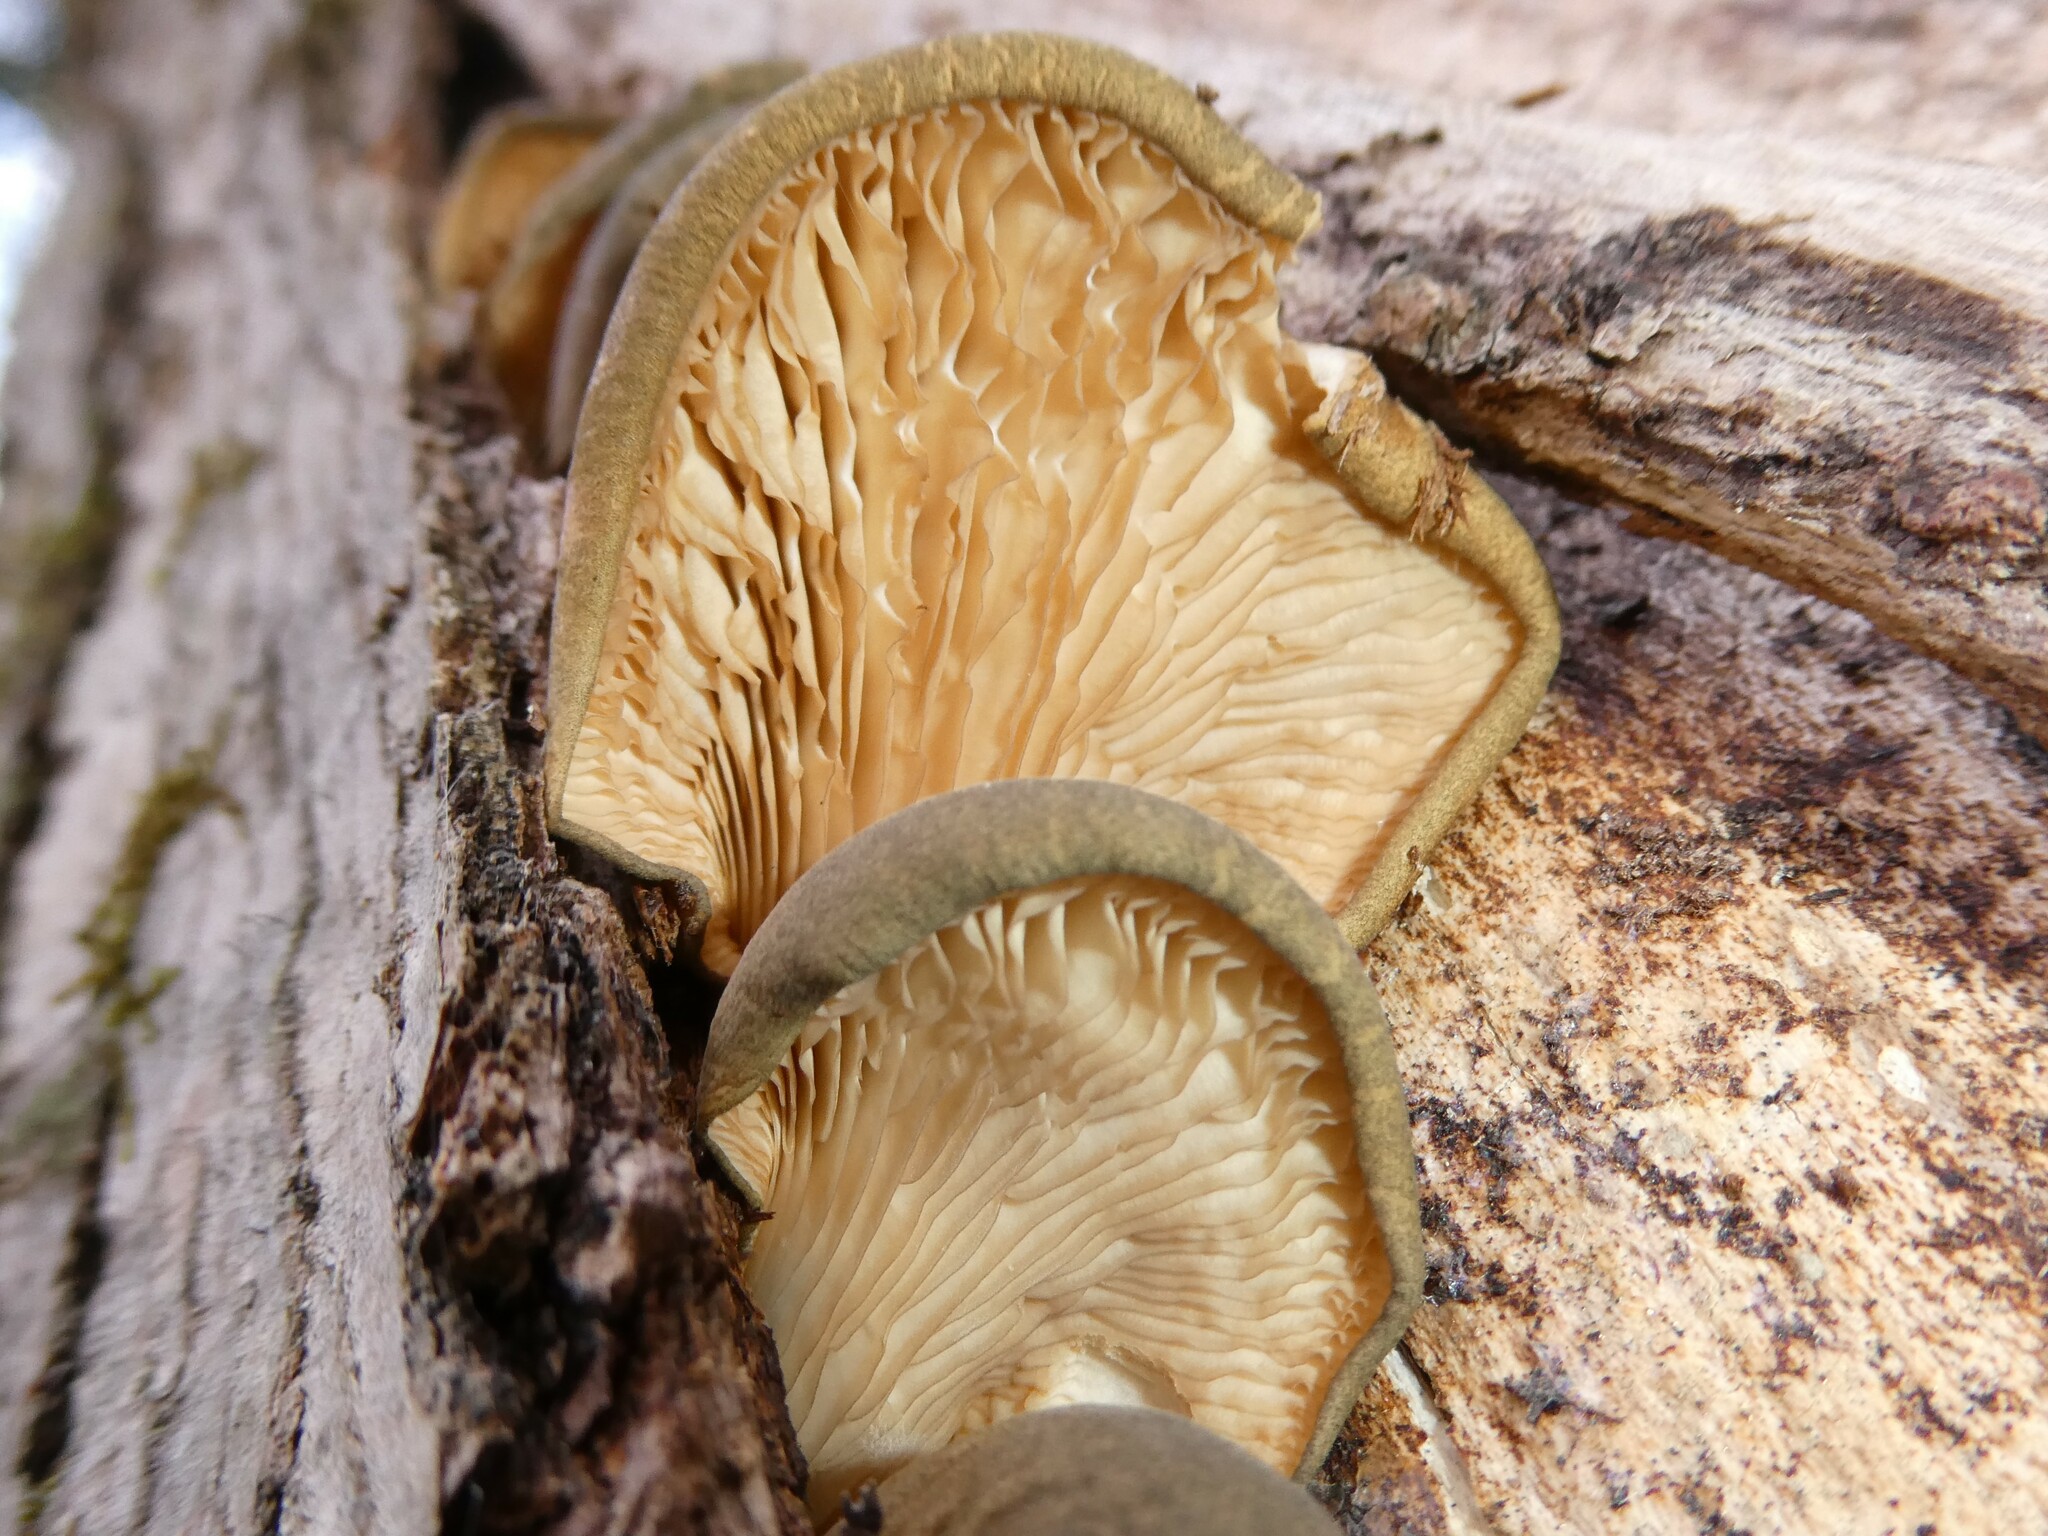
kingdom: Fungi
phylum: Basidiomycota
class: Agaricomycetes
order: Agaricales
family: Sarcomyxaceae
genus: Sarcomyxa
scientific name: Sarcomyxa serotina
